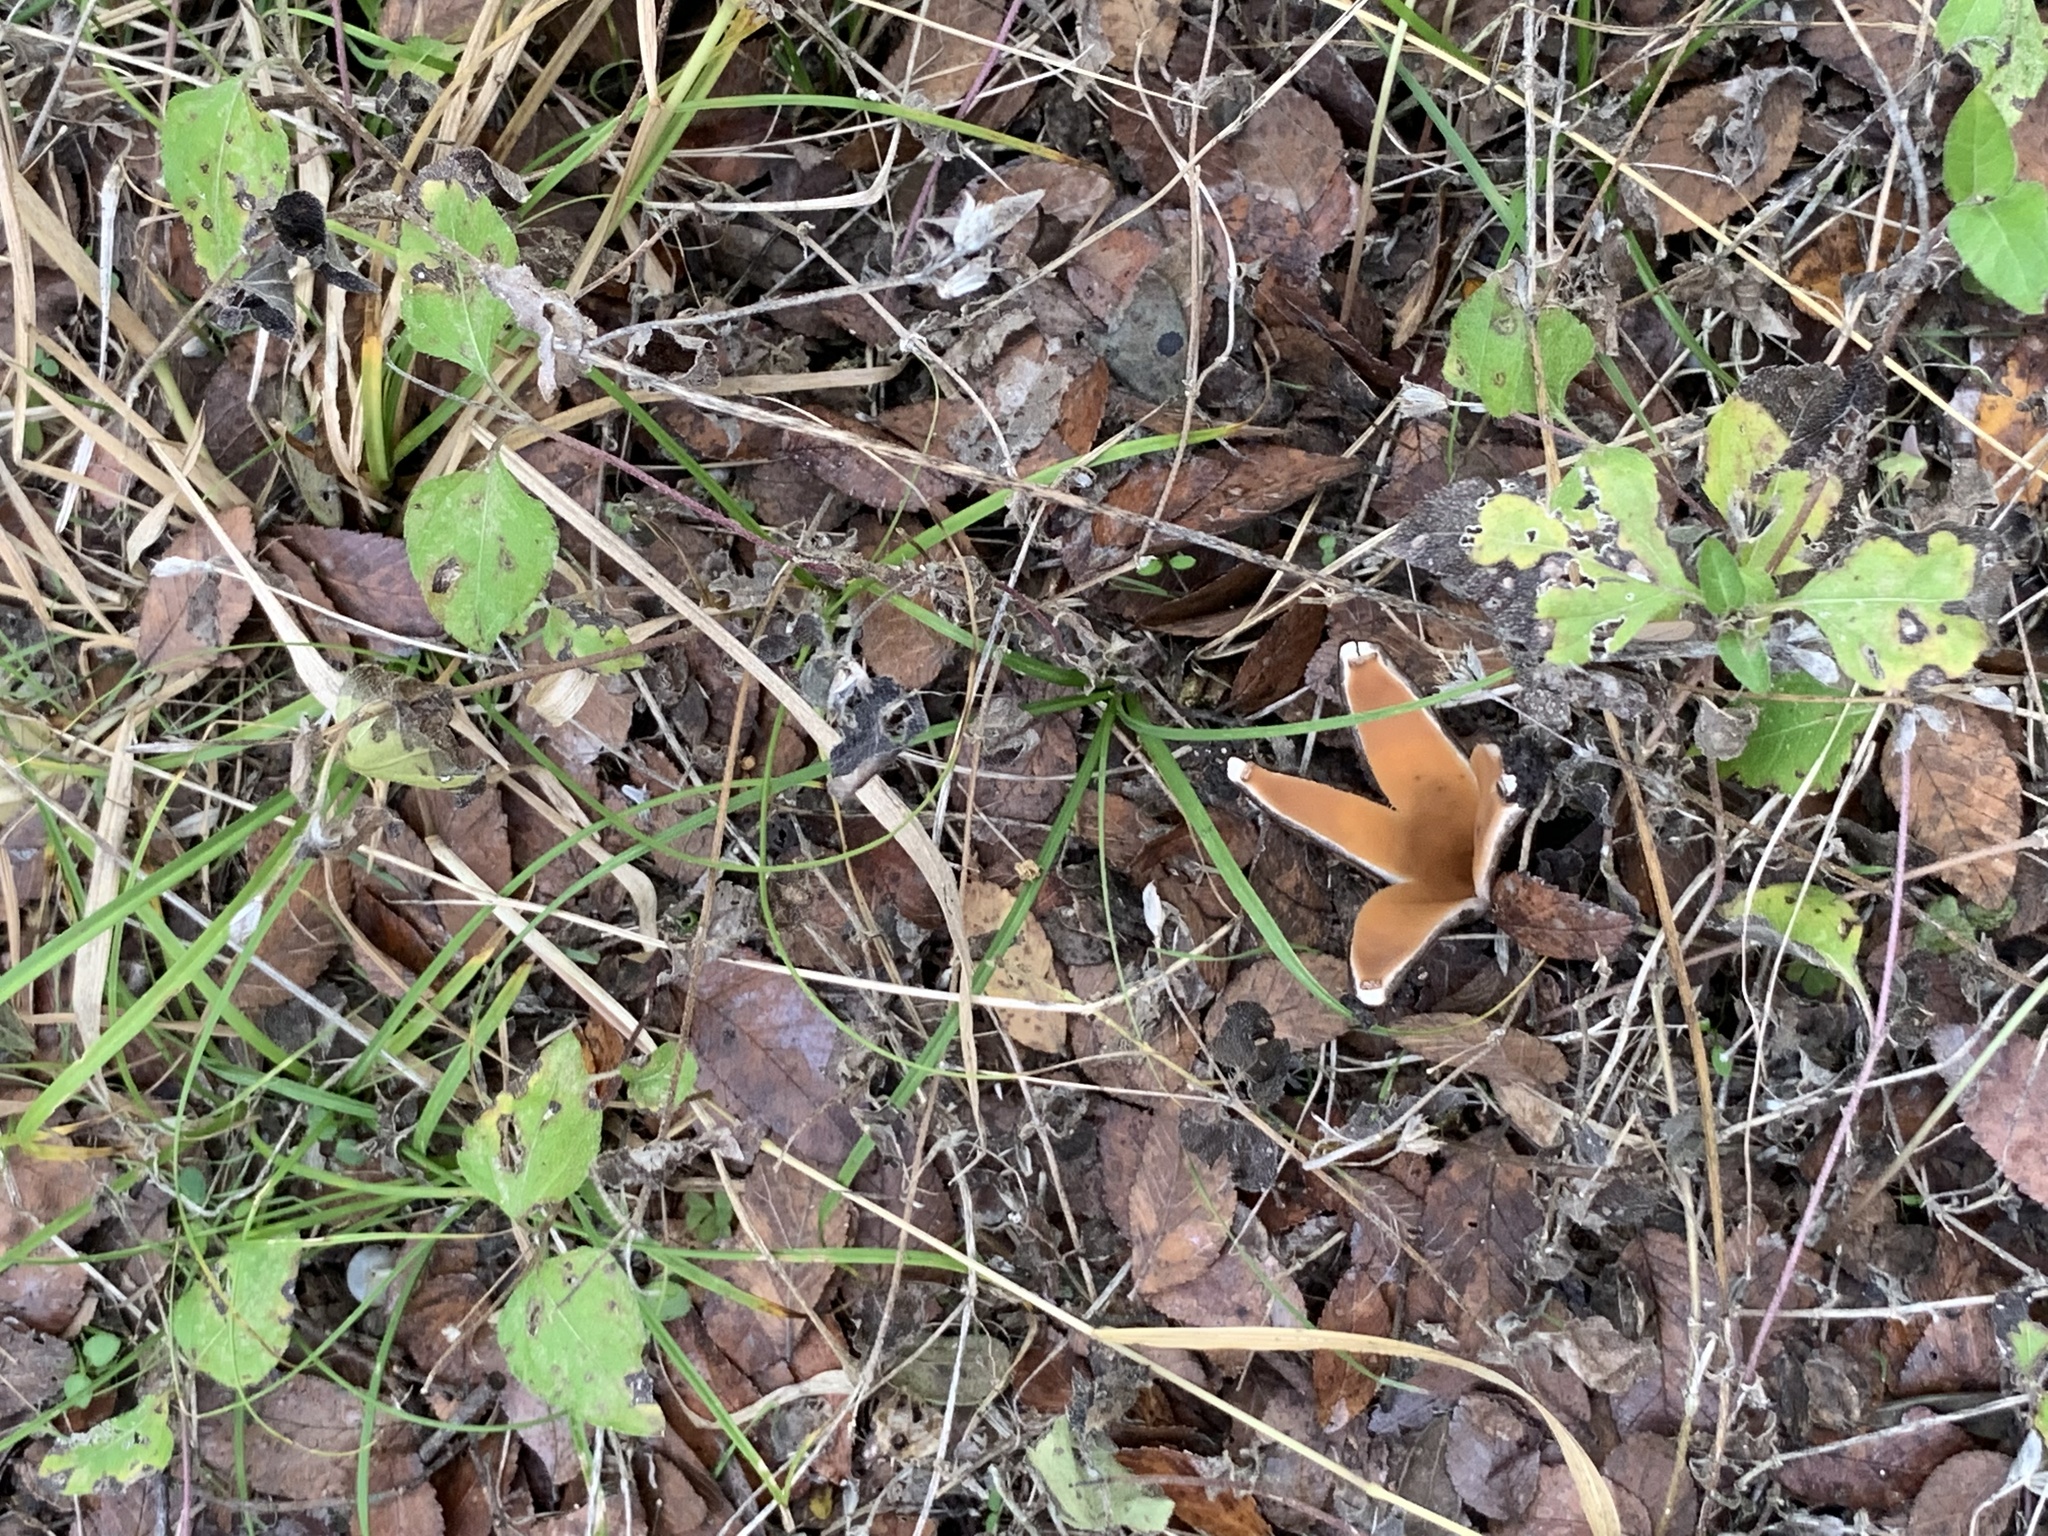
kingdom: Fungi
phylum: Ascomycota
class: Pezizomycetes
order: Pezizales
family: Chorioactidaceae
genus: Chorioactis
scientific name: Chorioactis geaster
